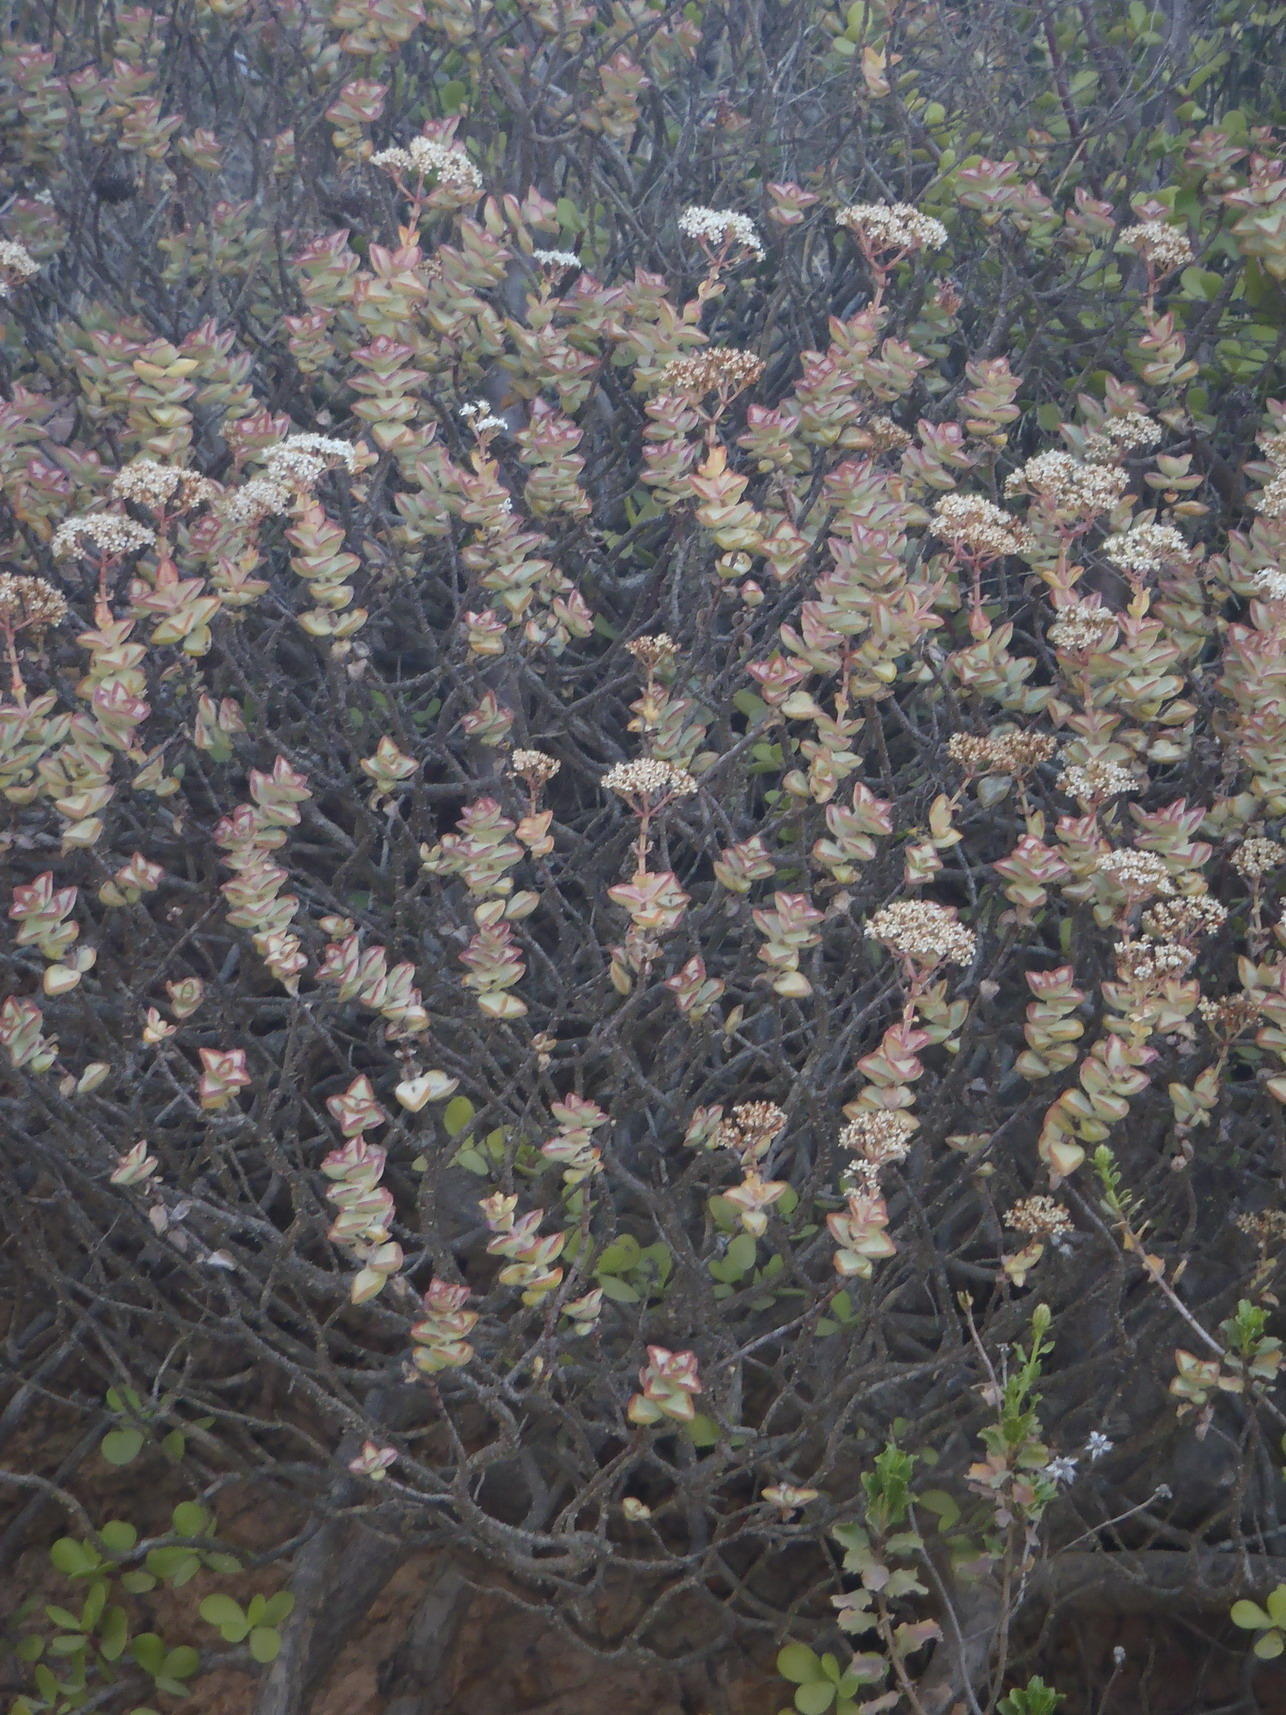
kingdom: Plantae
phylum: Tracheophyta
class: Magnoliopsida
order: Saxifragales
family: Crassulaceae
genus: Crassula
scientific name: Crassula rupestris
